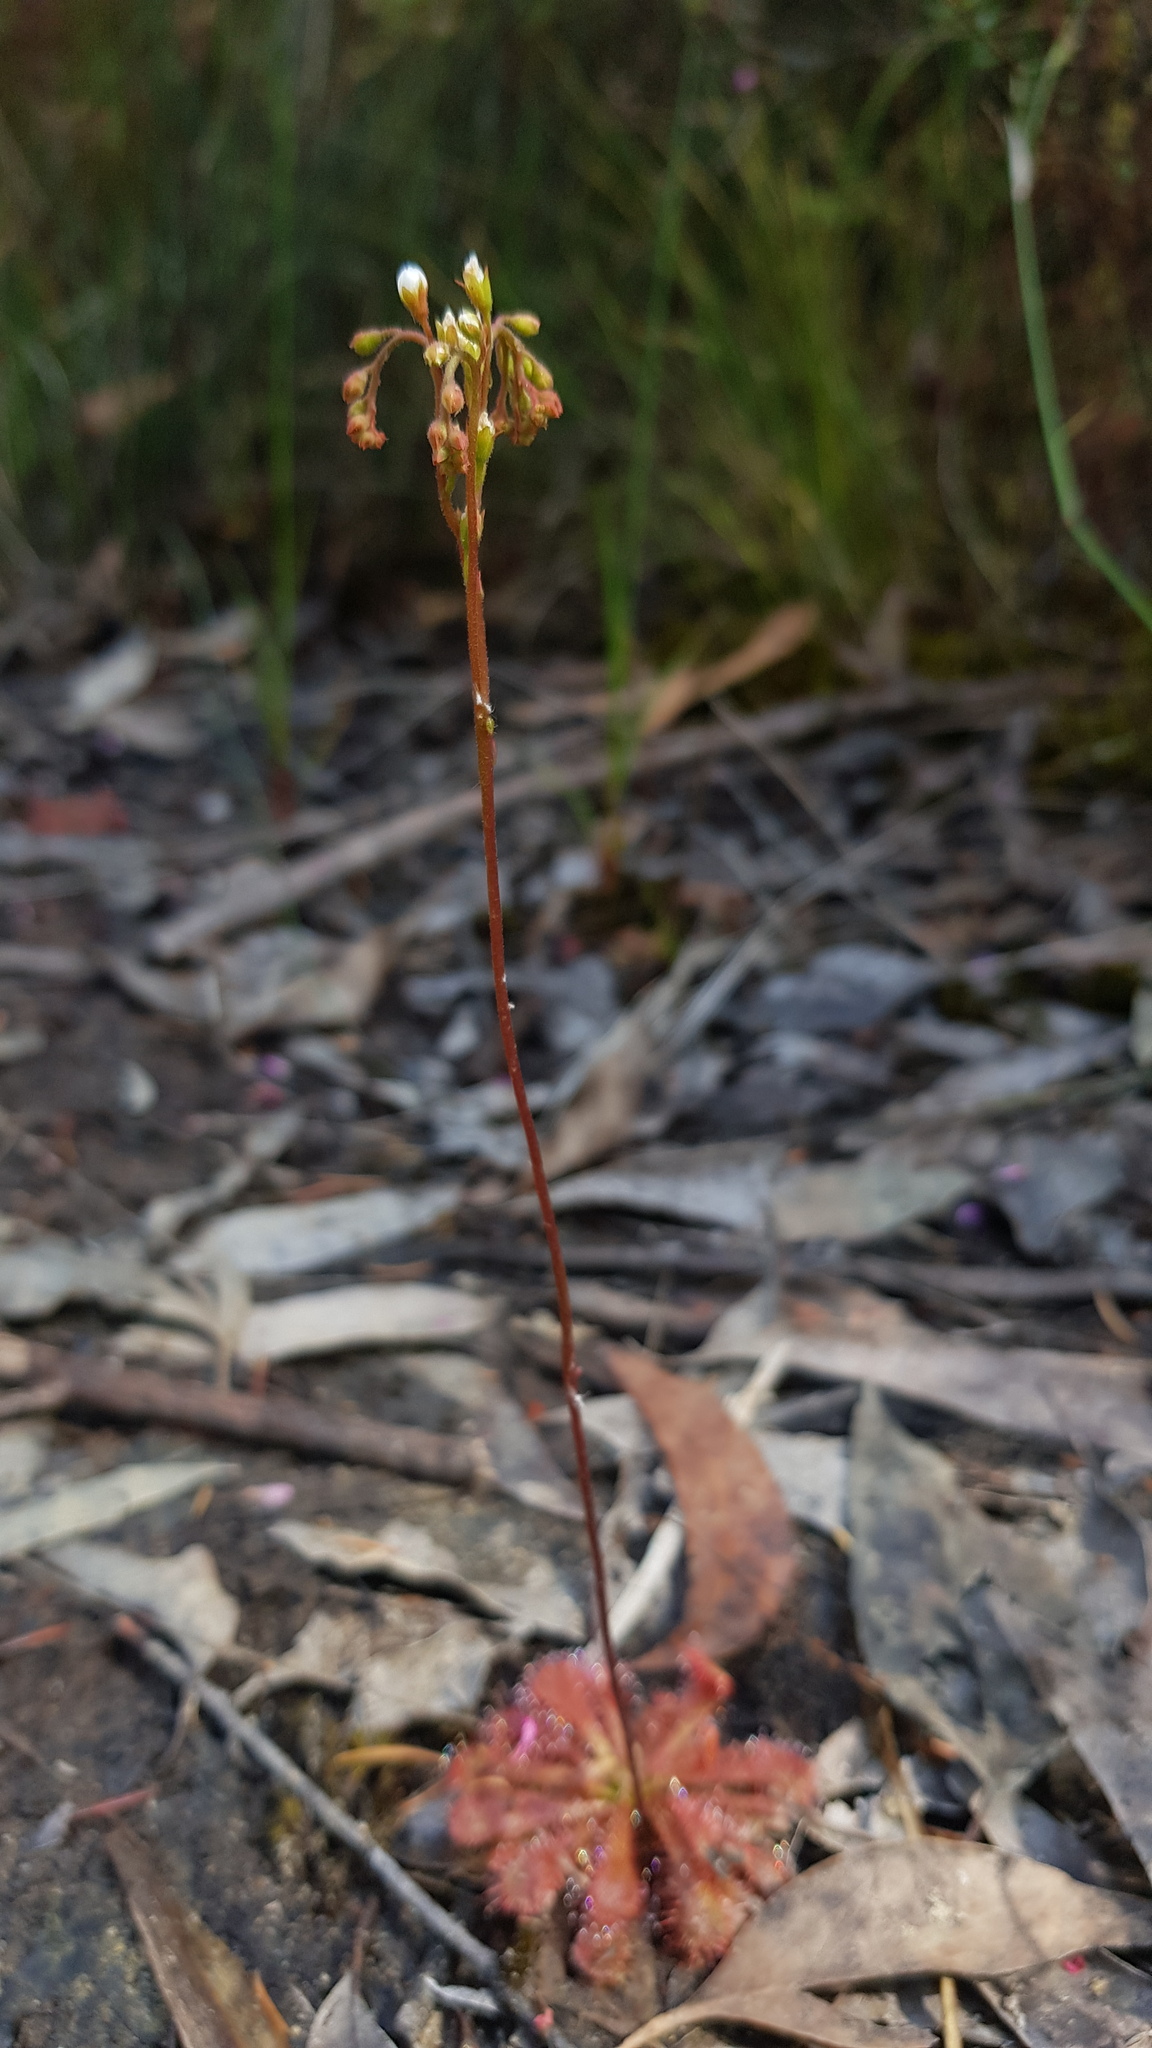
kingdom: Plantae
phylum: Tracheophyta
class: Magnoliopsida
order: Caryophyllales
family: Droseraceae
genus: Drosera
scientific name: Drosera spatulata
